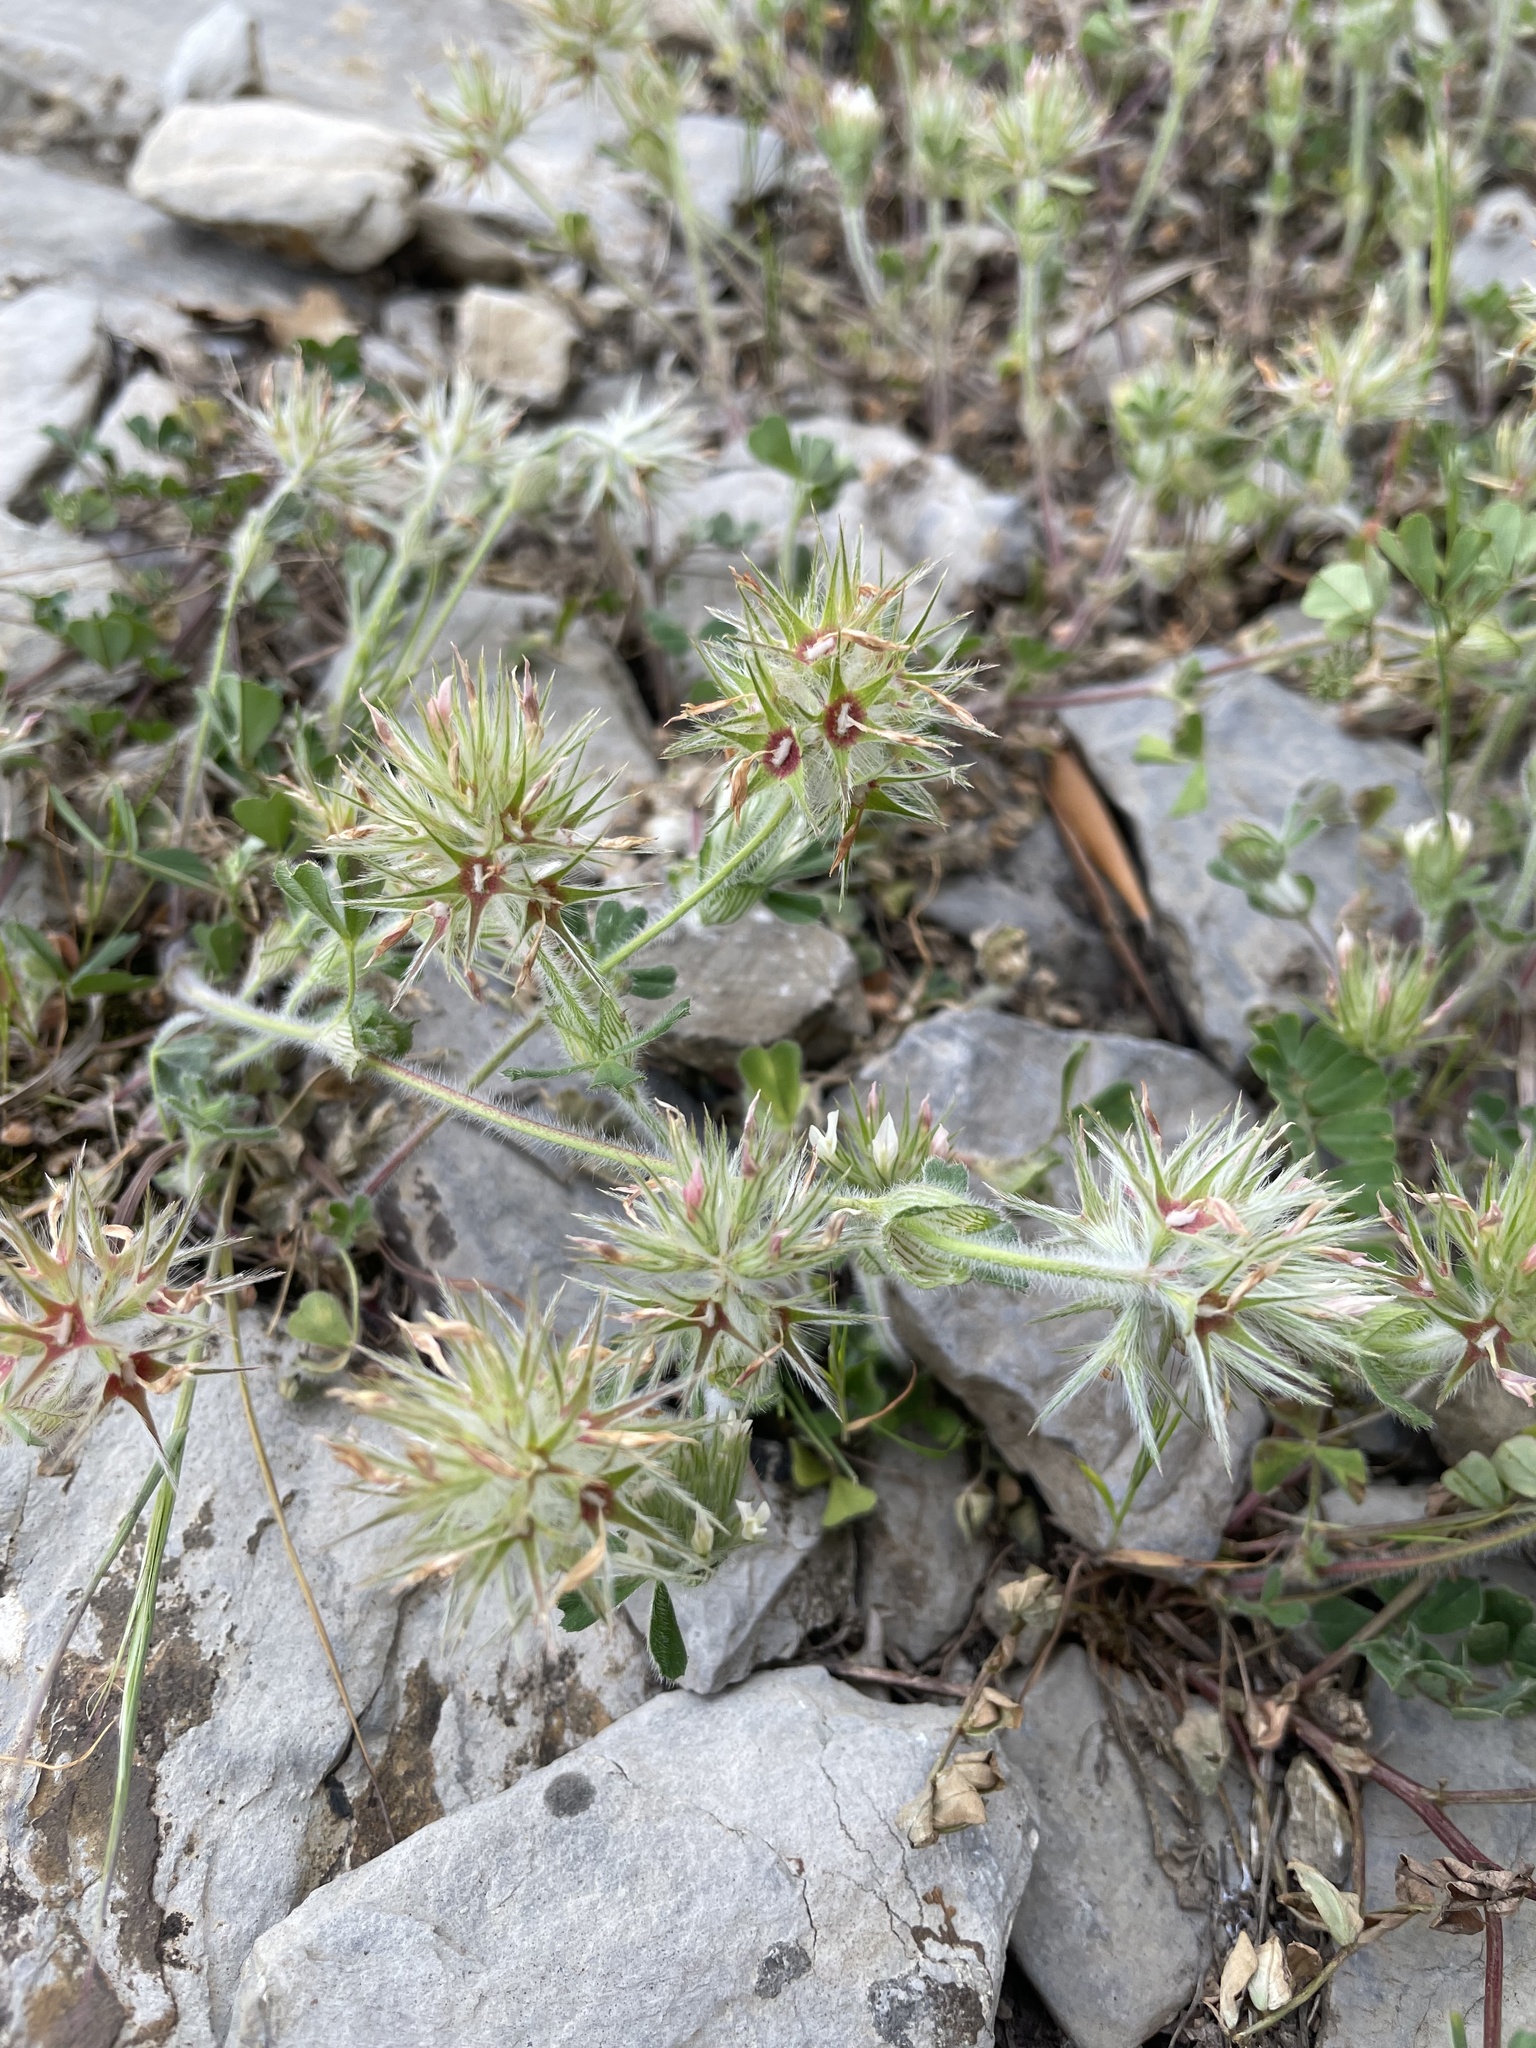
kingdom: Plantae
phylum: Tracheophyta
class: Magnoliopsida
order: Fabales
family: Fabaceae
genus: Trifolium
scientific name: Trifolium stellatum
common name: Starry clover
